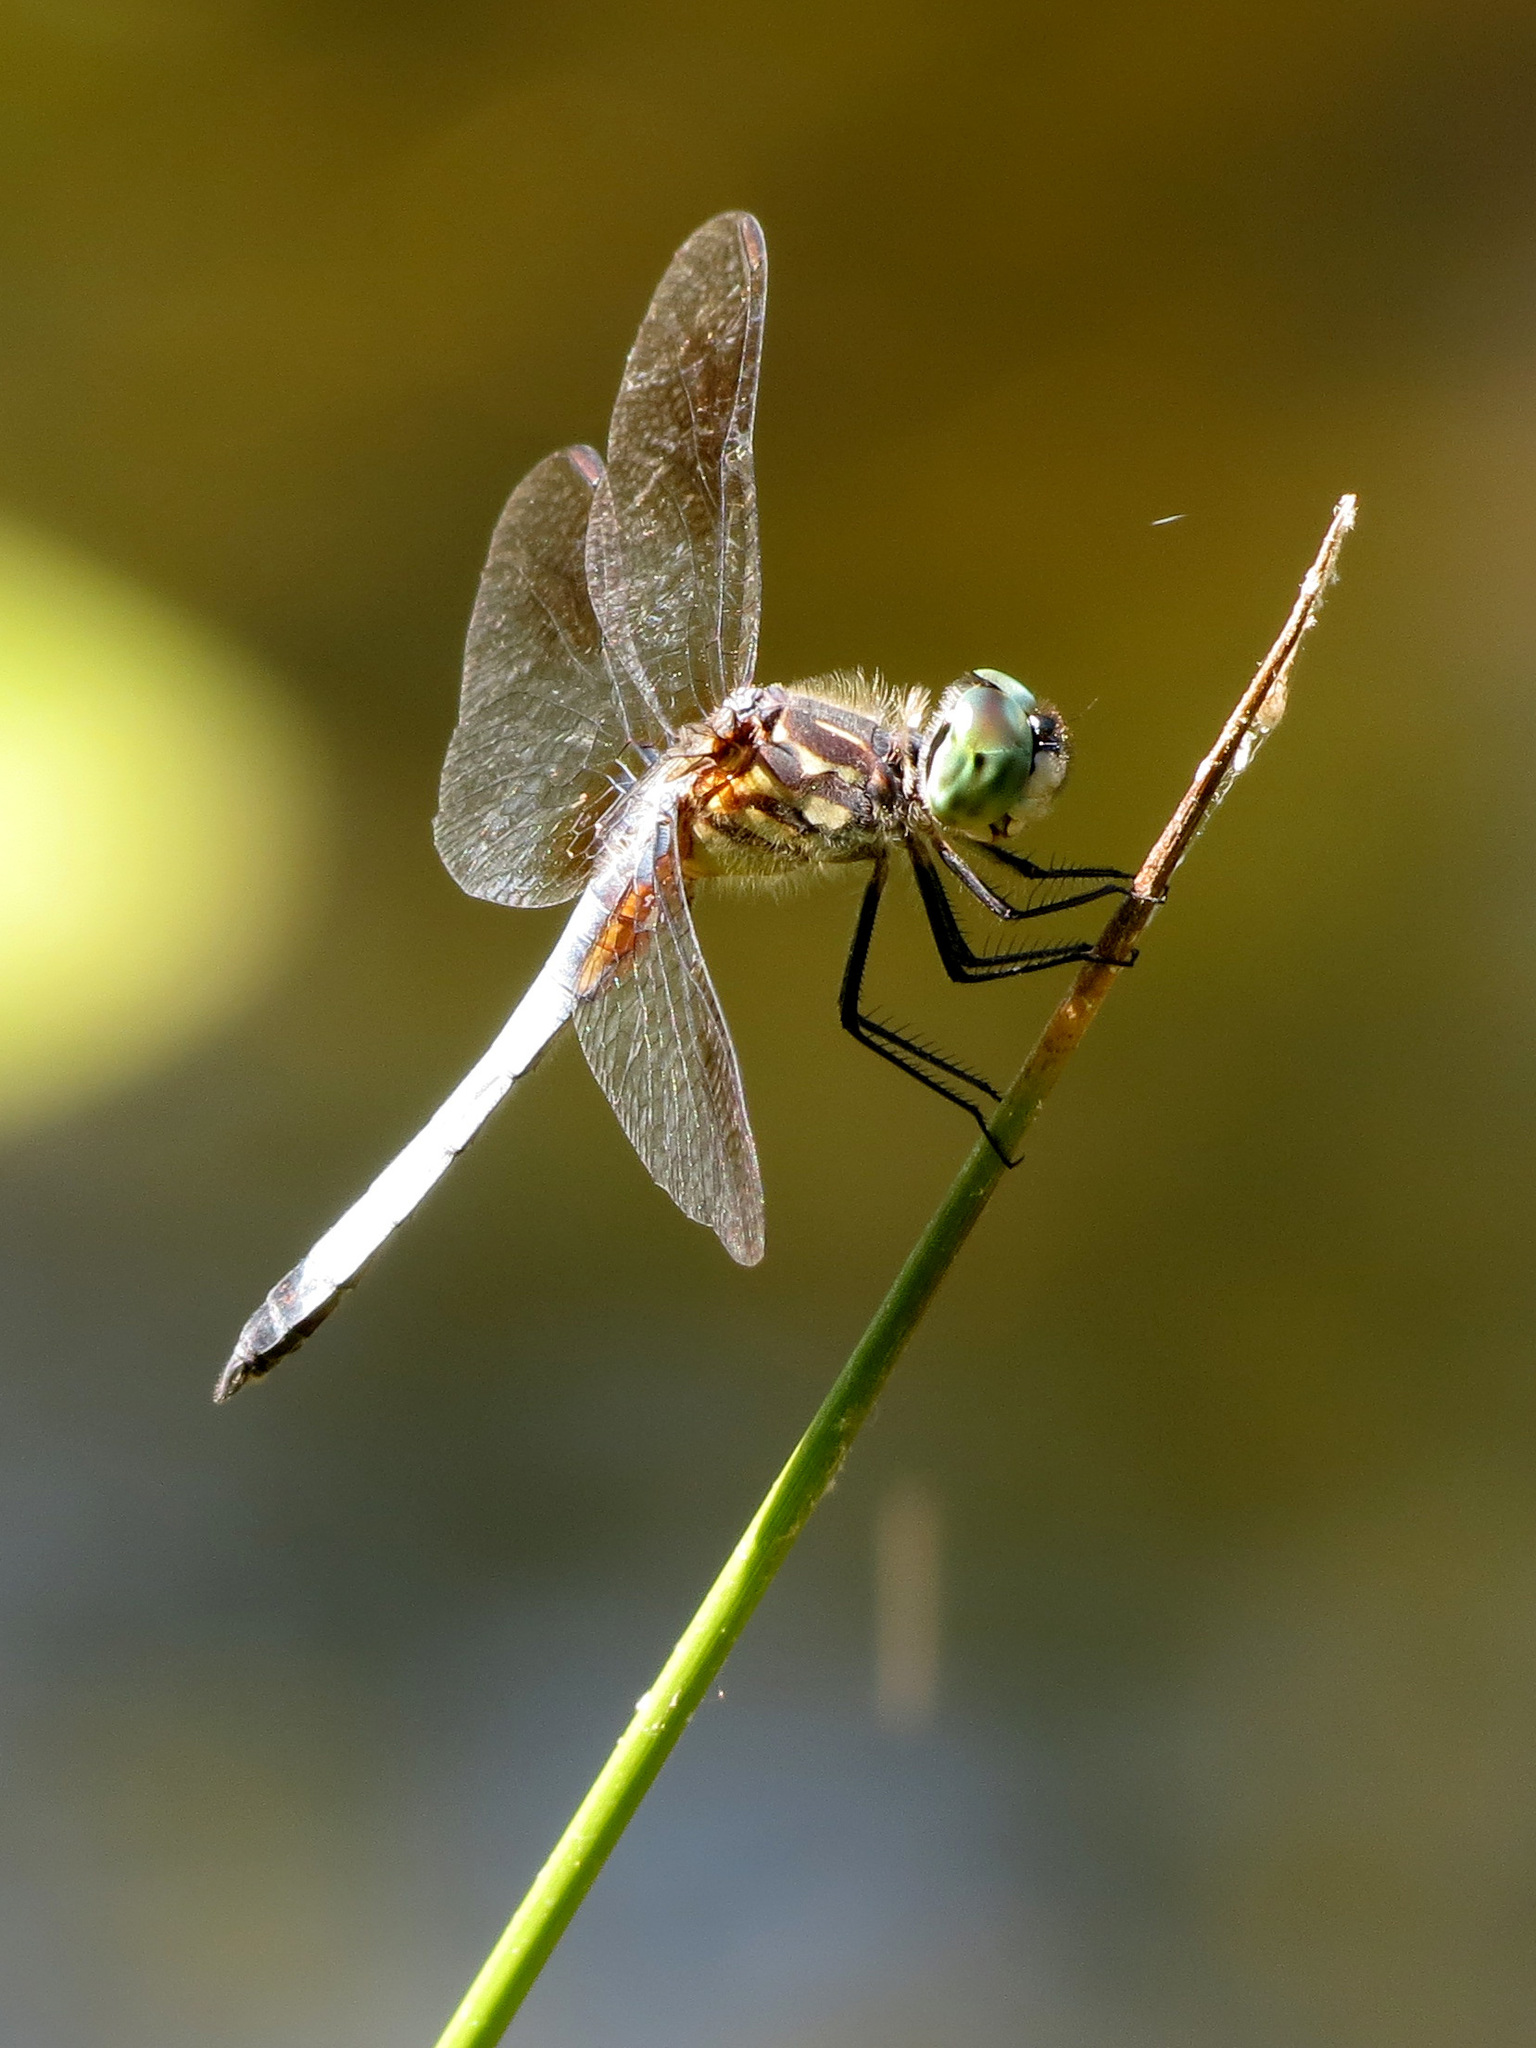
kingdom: Animalia
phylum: Arthropoda
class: Insecta
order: Odonata
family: Libellulidae
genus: Pachydiplax
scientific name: Pachydiplax longipennis
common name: Blue dasher
